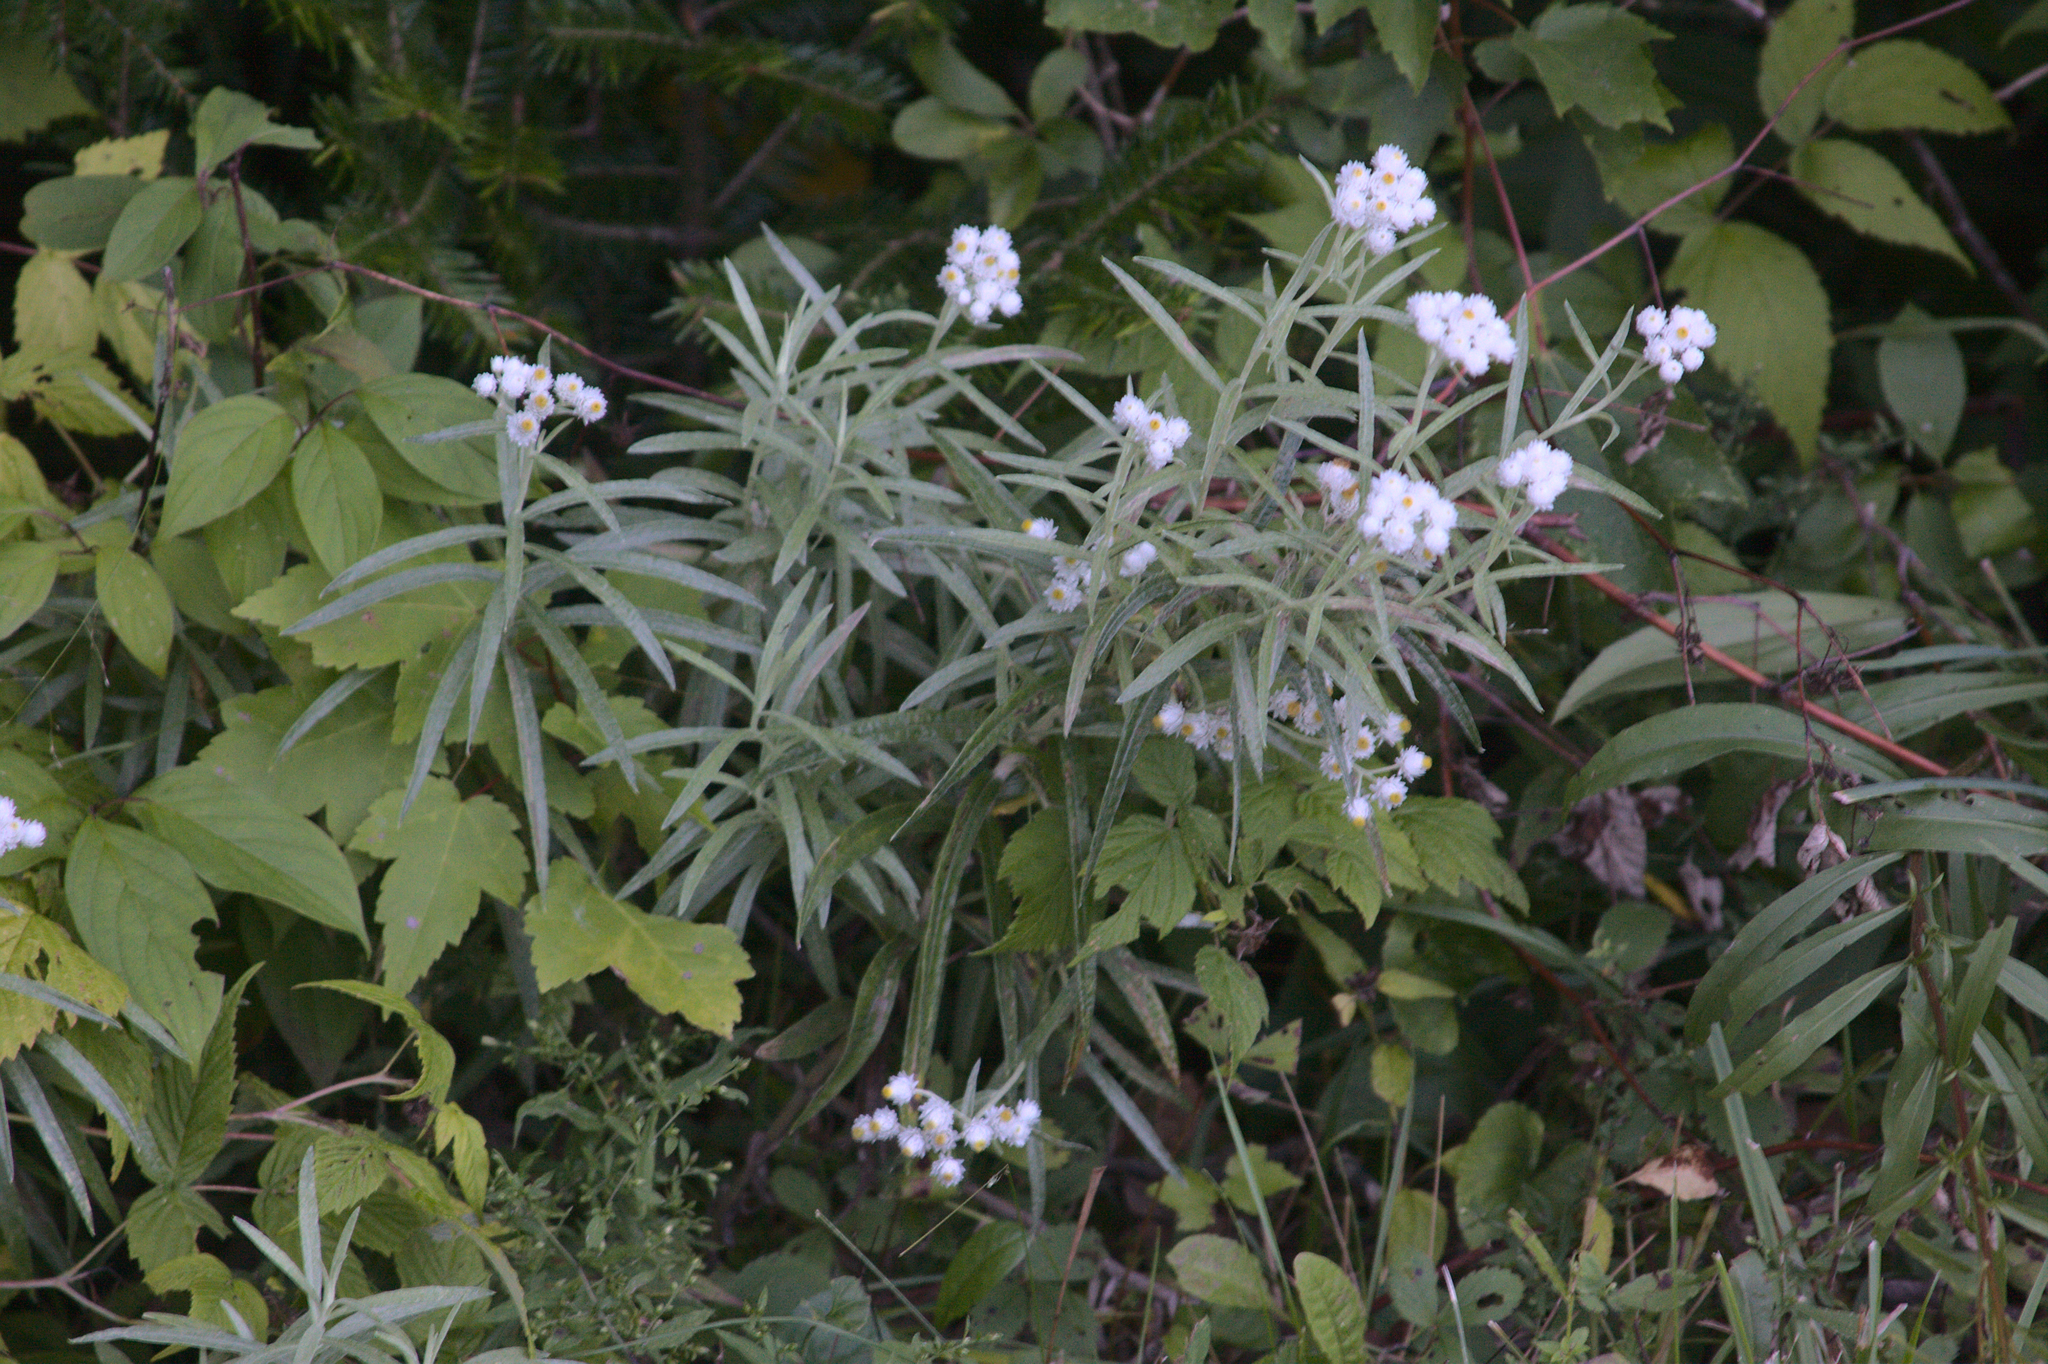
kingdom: Plantae
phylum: Tracheophyta
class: Magnoliopsida
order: Asterales
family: Asteraceae
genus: Anaphalis
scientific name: Anaphalis margaritacea
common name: Pearly everlasting
